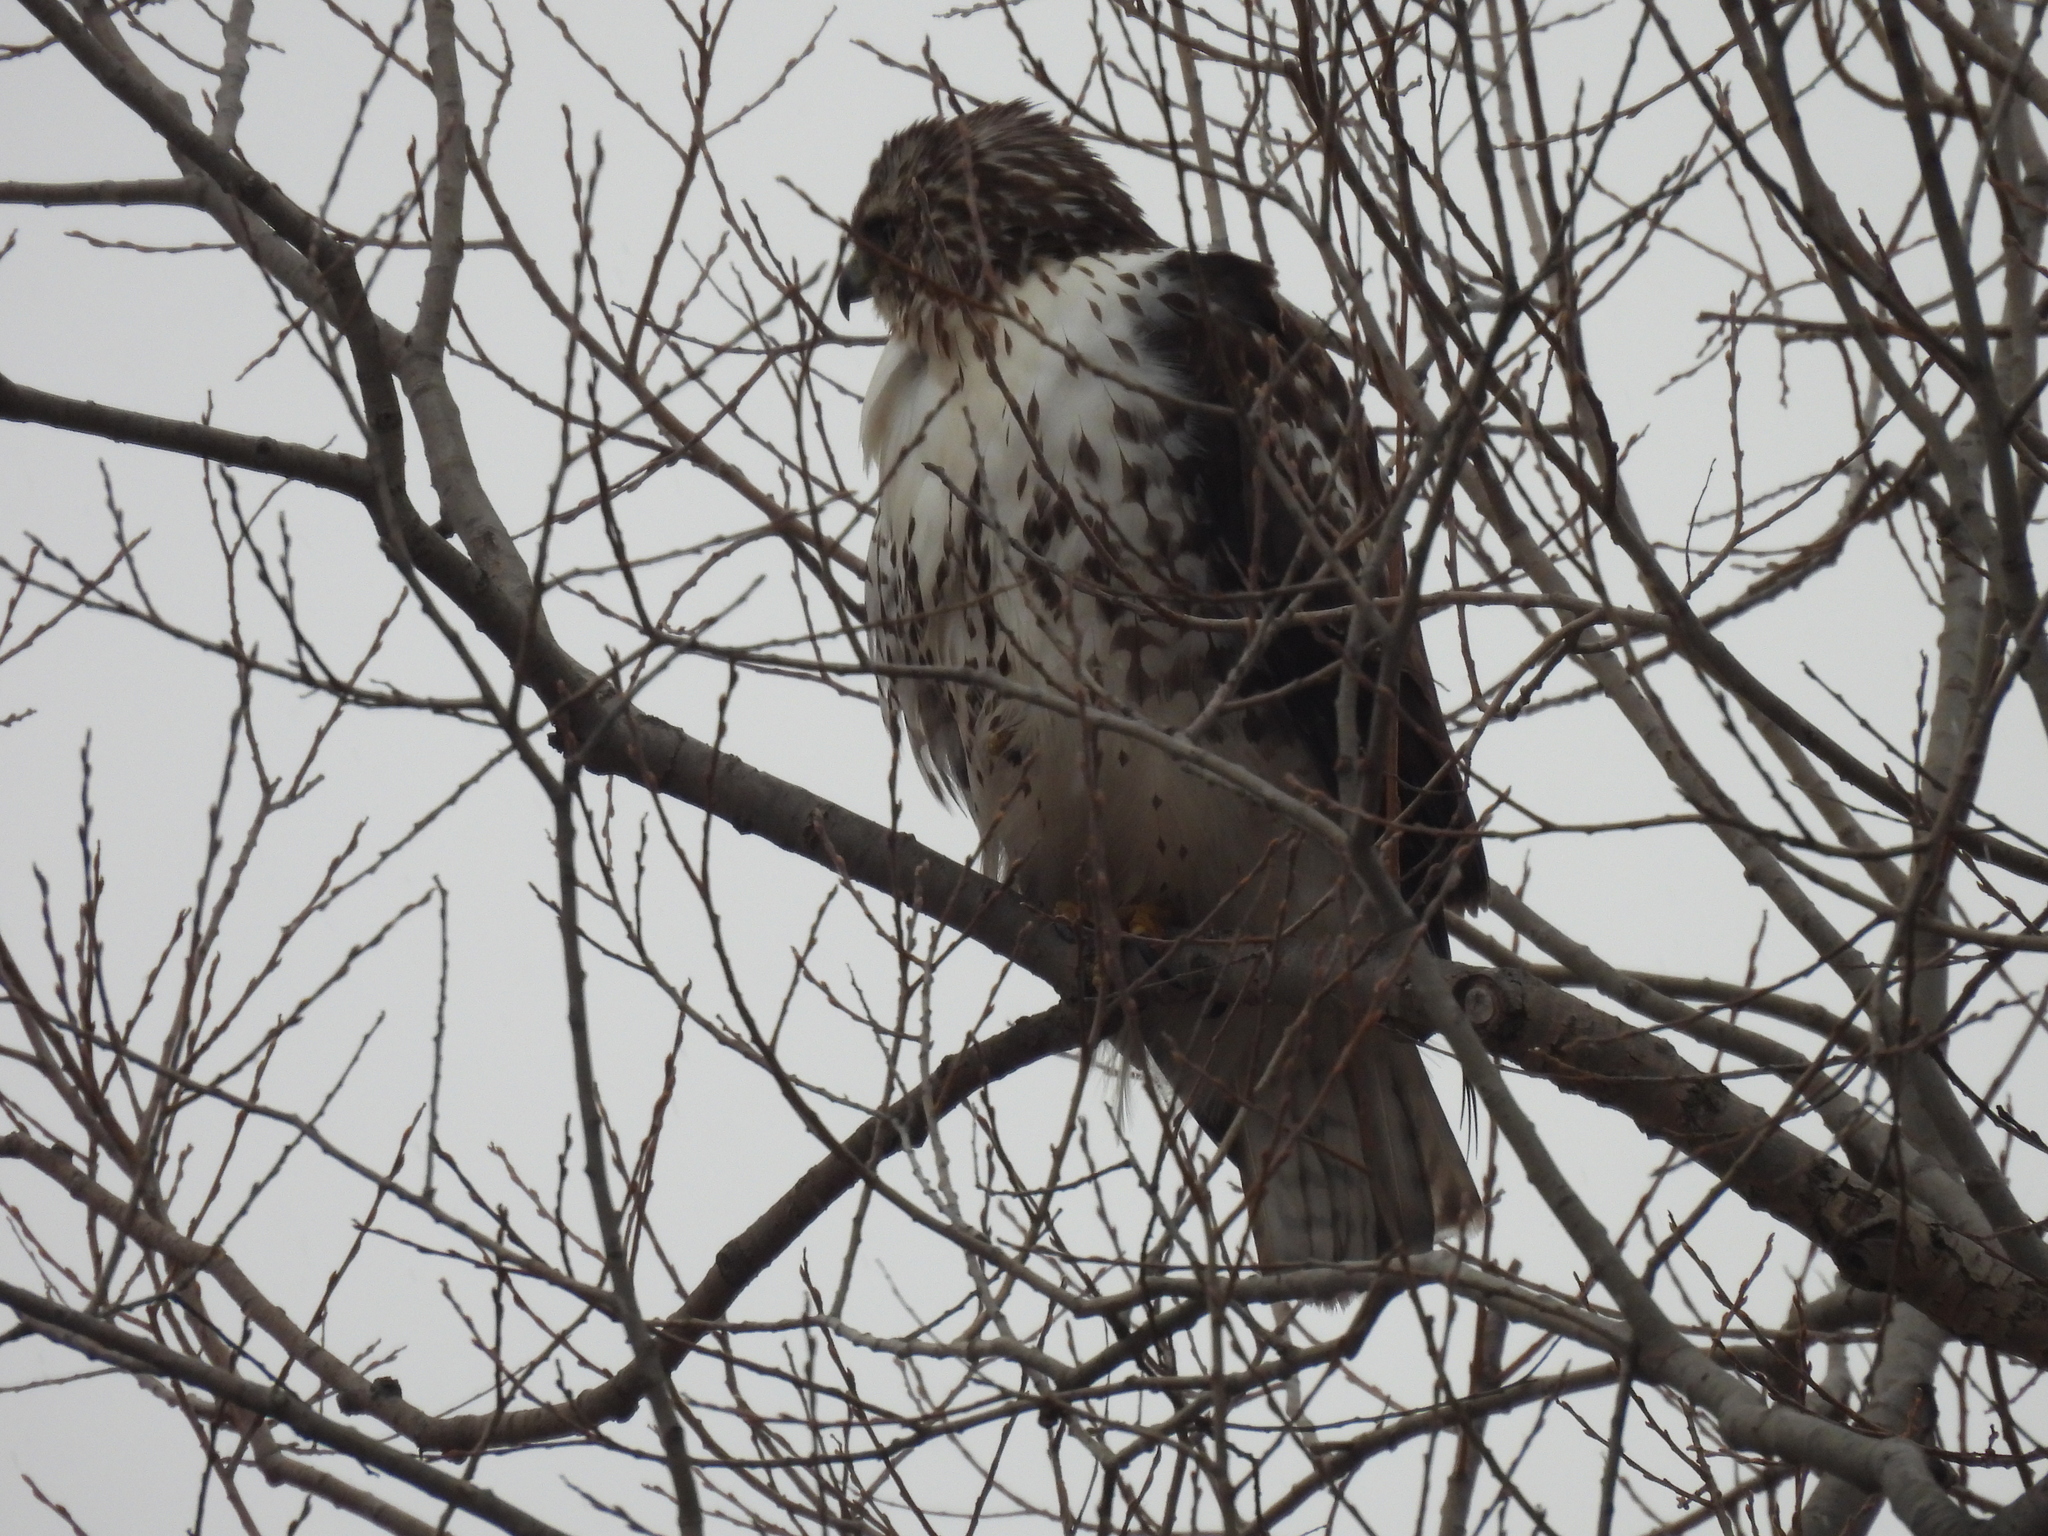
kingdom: Animalia
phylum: Chordata
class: Aves
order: Accipitriformes
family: Accipitridae
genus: Buteo
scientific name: Buteo jamaicensis
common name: Red-tailed hawk
